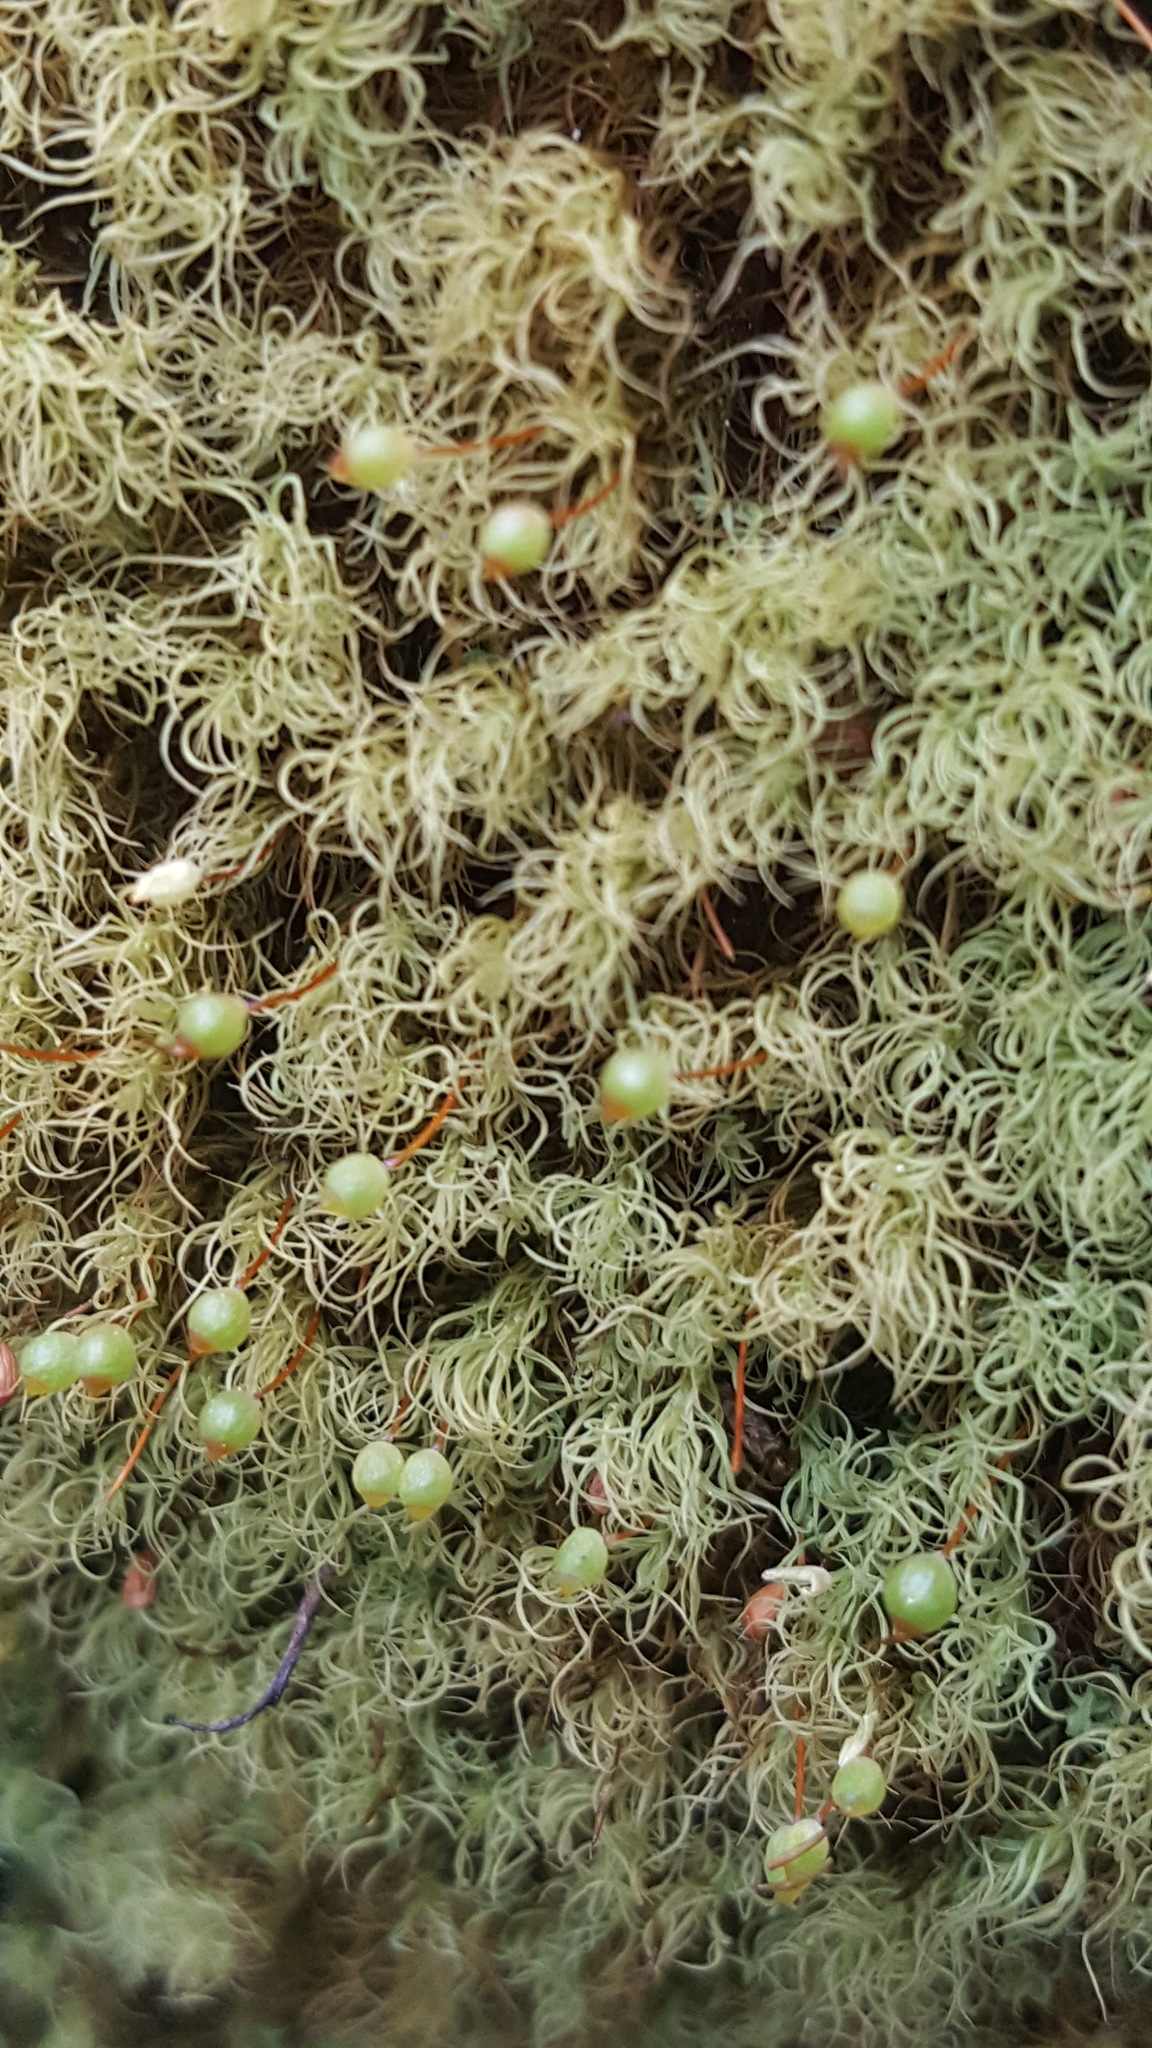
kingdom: Plantae
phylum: Bryophyta
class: Bryopsida
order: Bartramiales
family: Bartramiaceae
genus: Bartramia
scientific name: Bartramia ithyphylla
